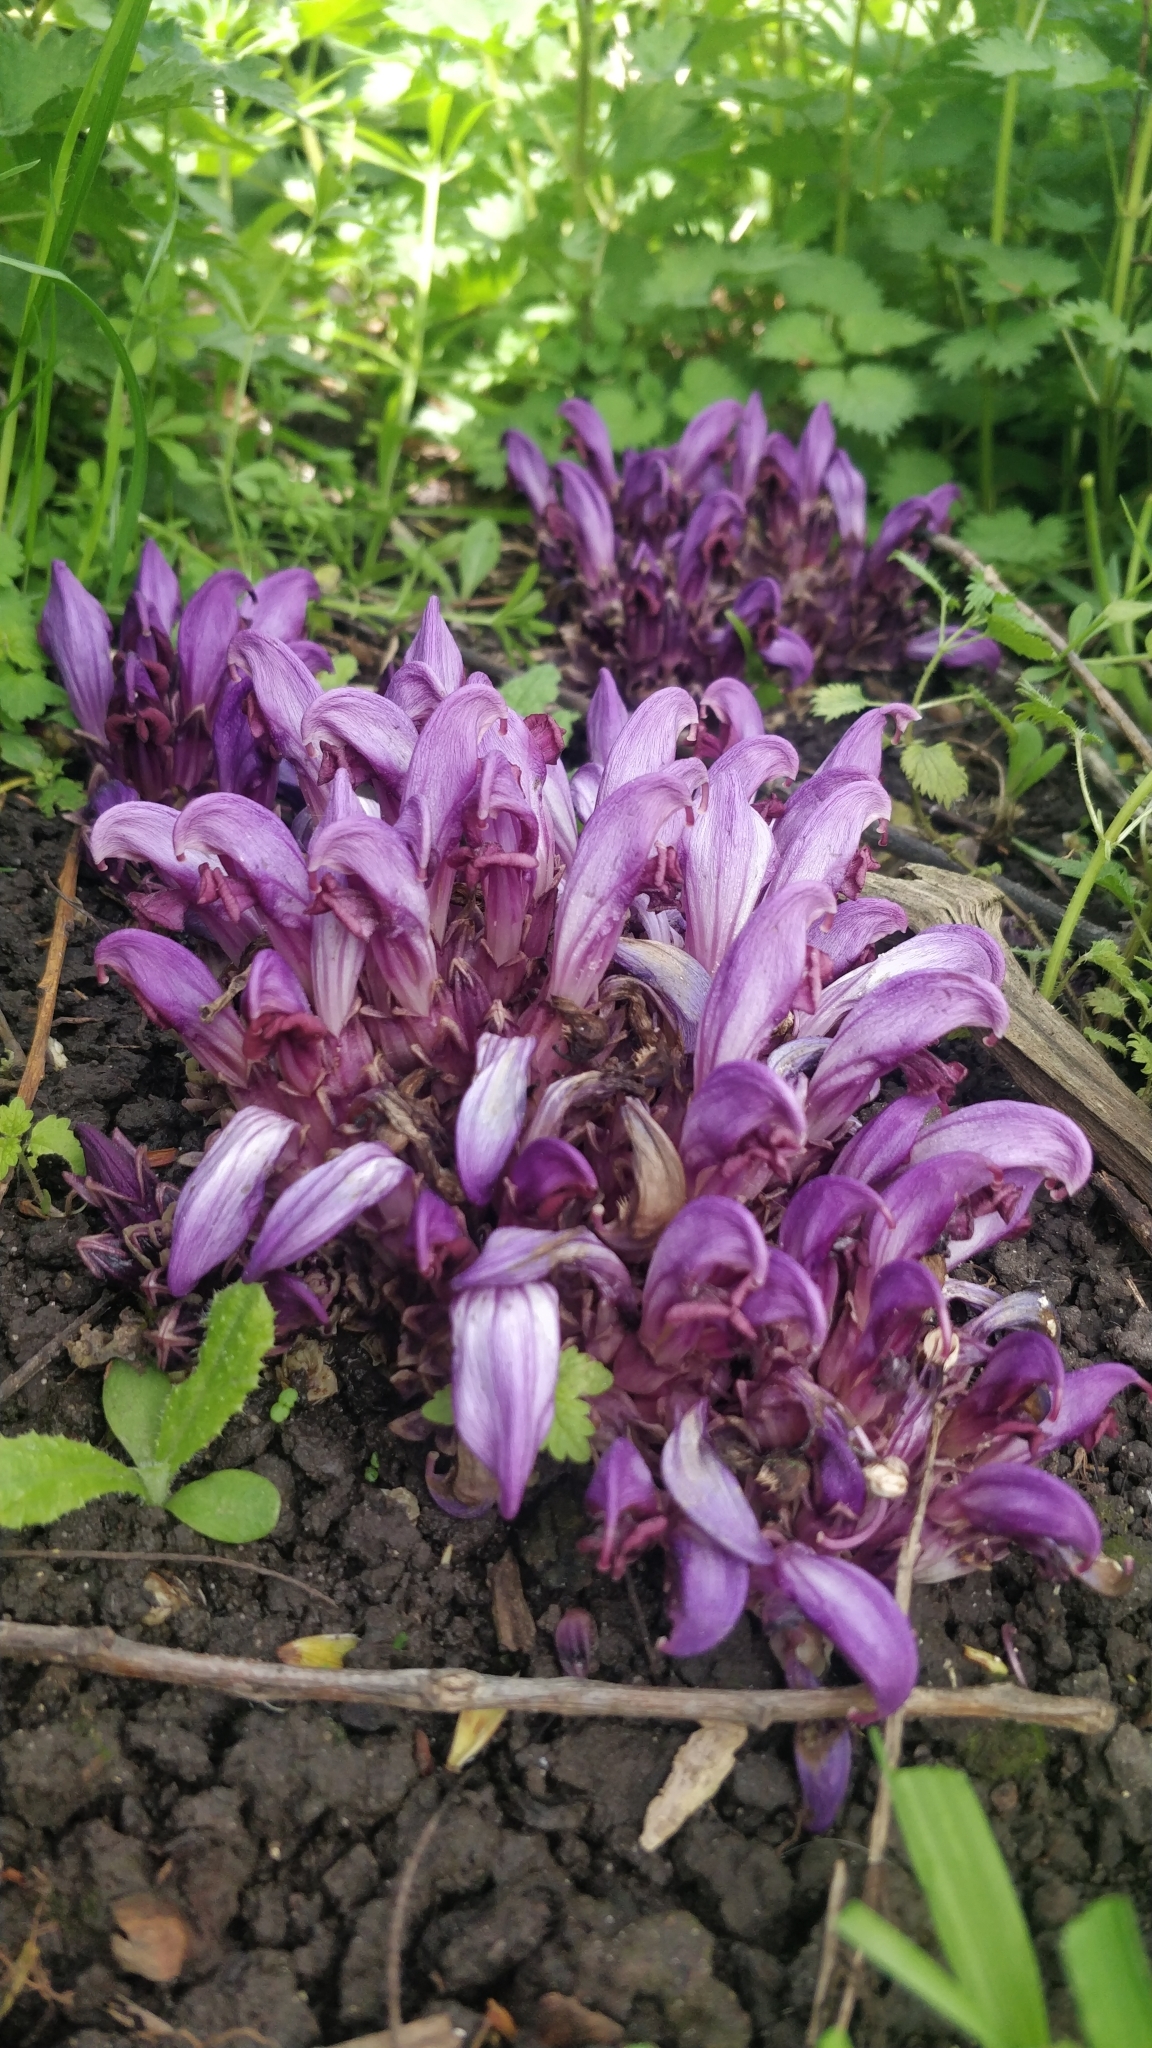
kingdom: Plantae
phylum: Tracheophyta
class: Magnoliopsida
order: Lamiales
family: Orobanchaceae
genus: Lathraea
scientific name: Lathraea clandestina
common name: Purple toothwort
